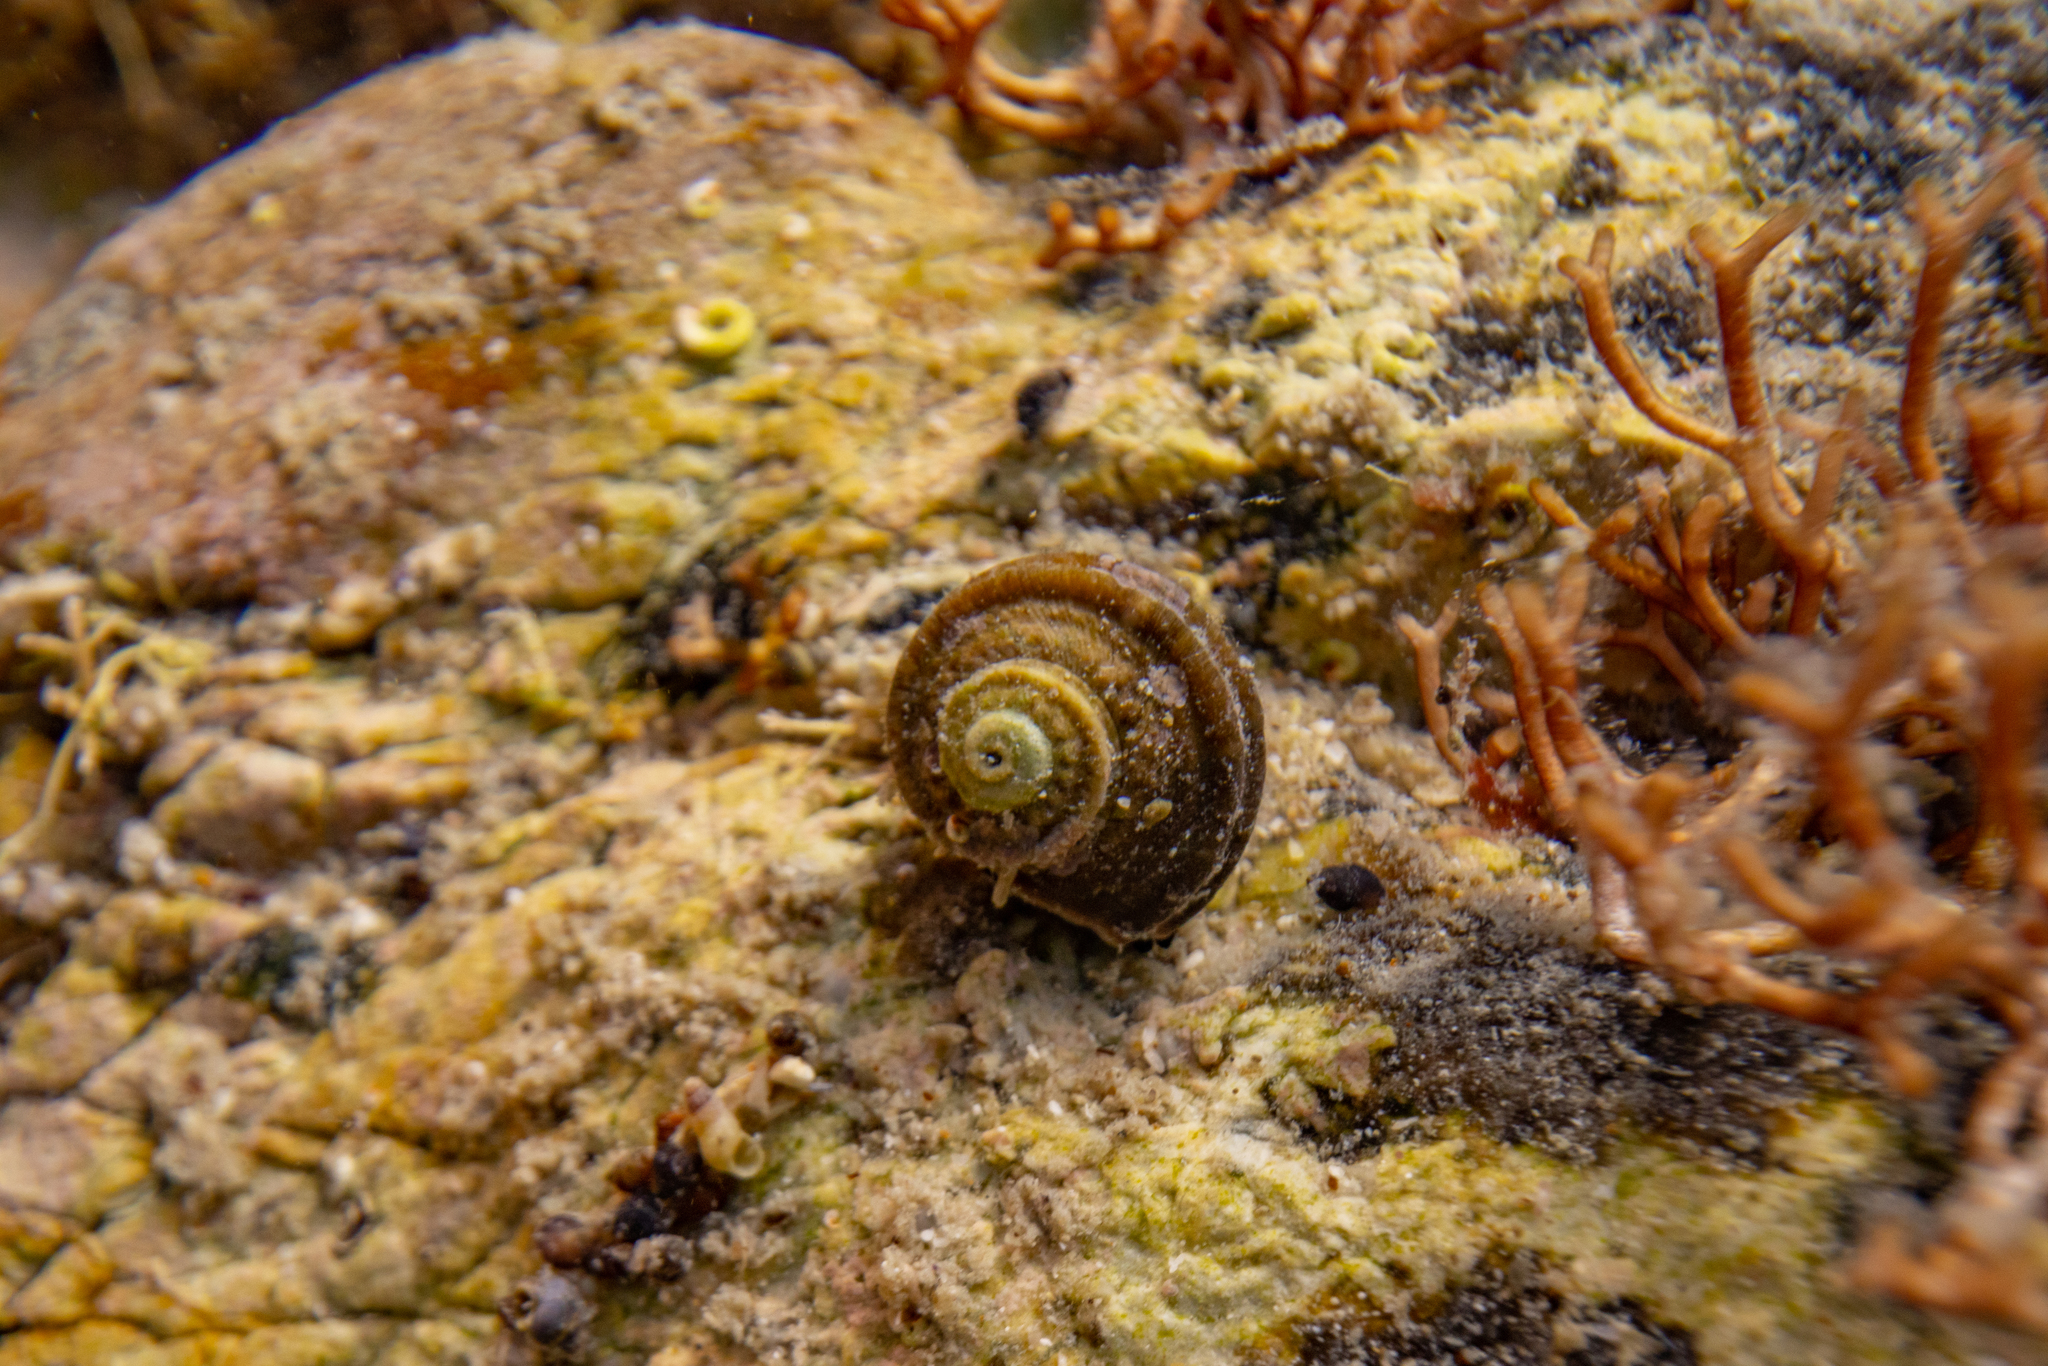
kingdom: Animalia
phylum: Mollusca
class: Gastropoda
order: Trochida
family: Turbinidae
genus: Lunella
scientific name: Lunella smaragda
